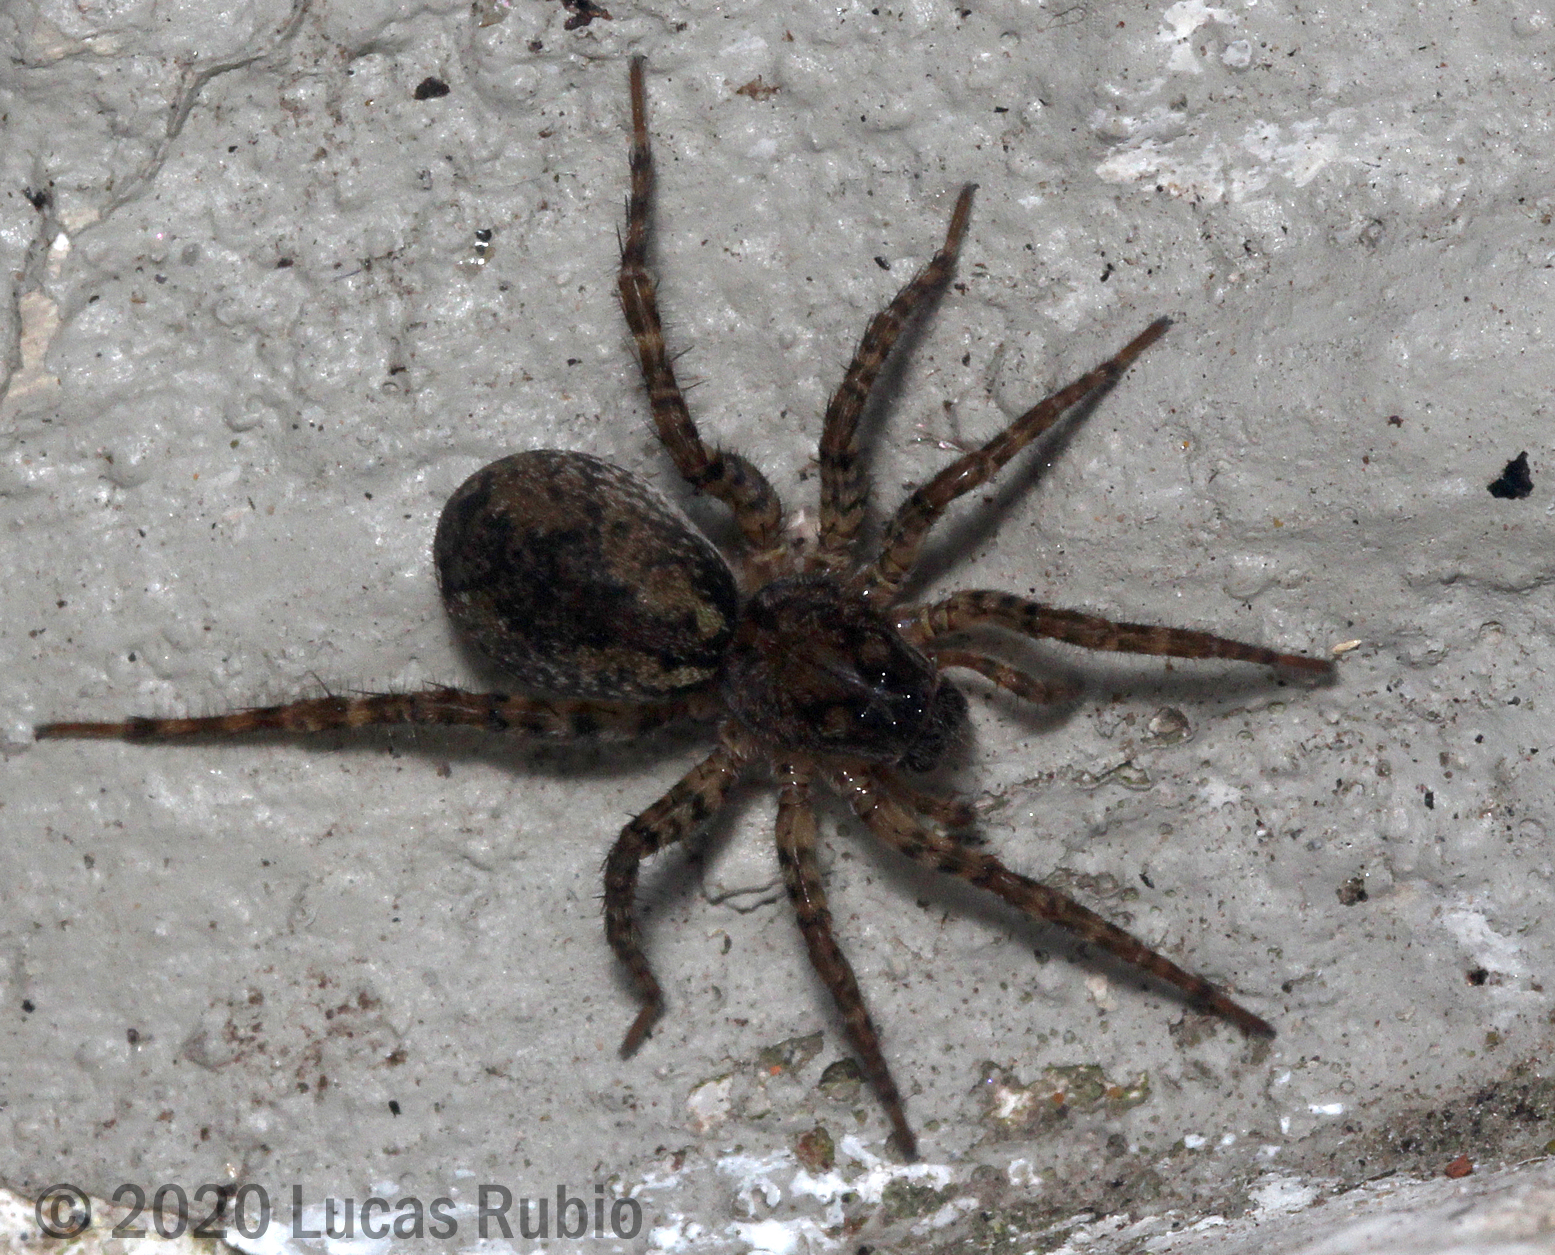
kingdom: Animalia
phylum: Arthropoda
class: Arachnida
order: Araneae
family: Lycosidae
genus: Paratrochosina
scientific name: Paratrochosina amica
